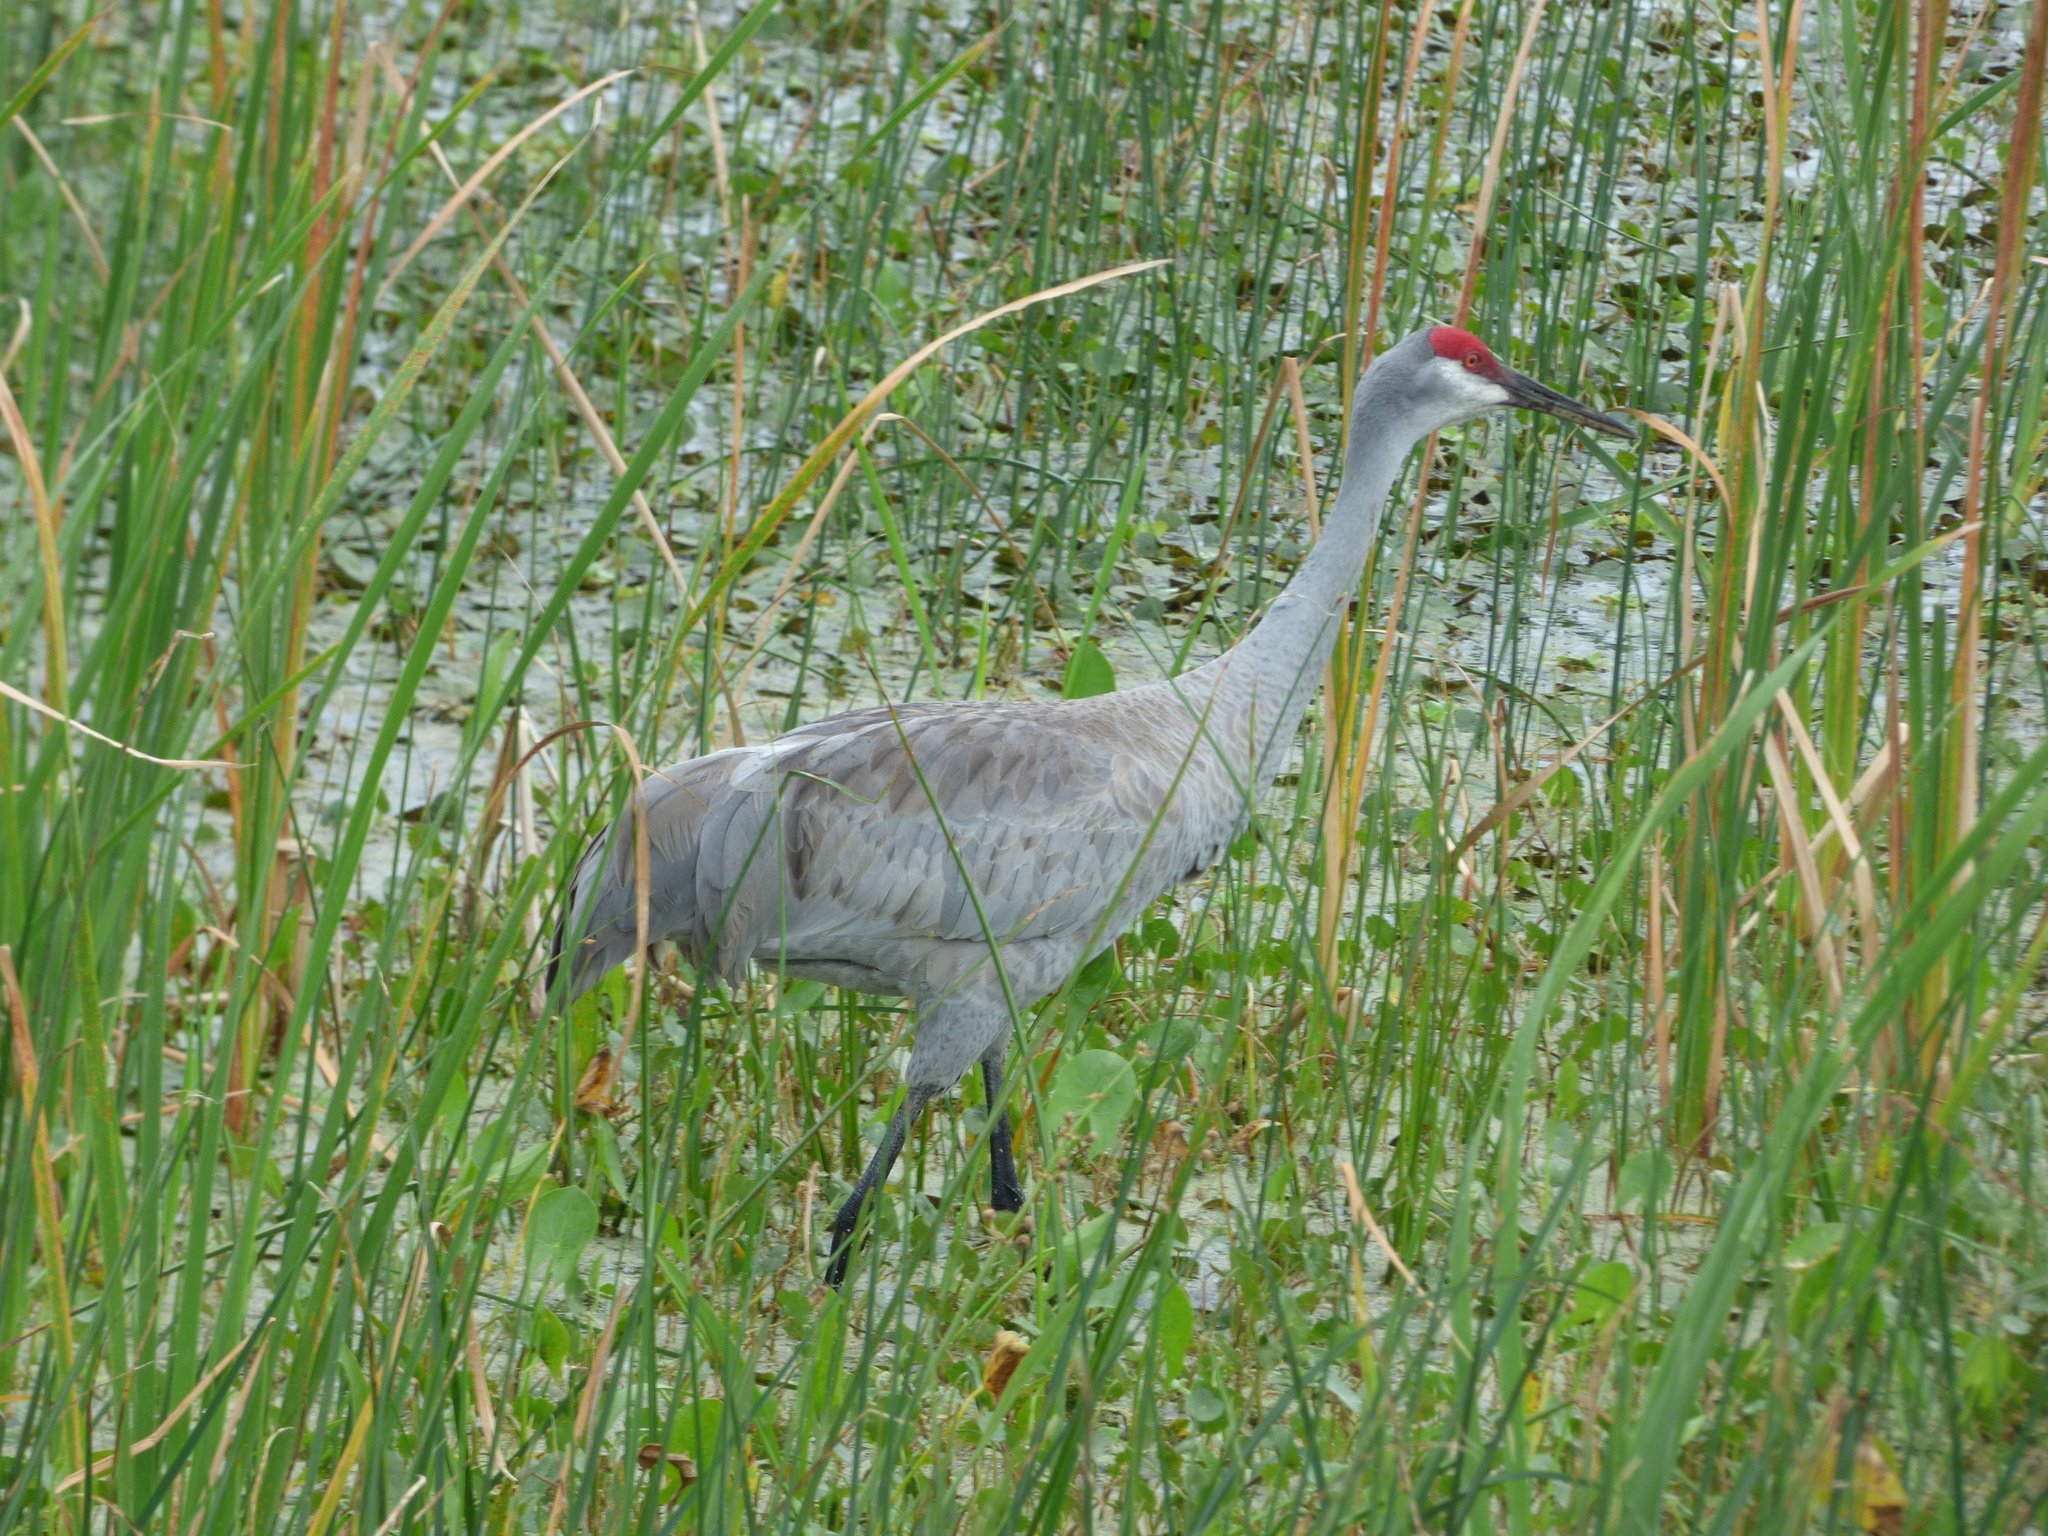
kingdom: Animalia
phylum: Chordata
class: Aves
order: Gruiformes
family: Gruidae
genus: Grus
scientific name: Grus canadensis
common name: Sandhill crane
